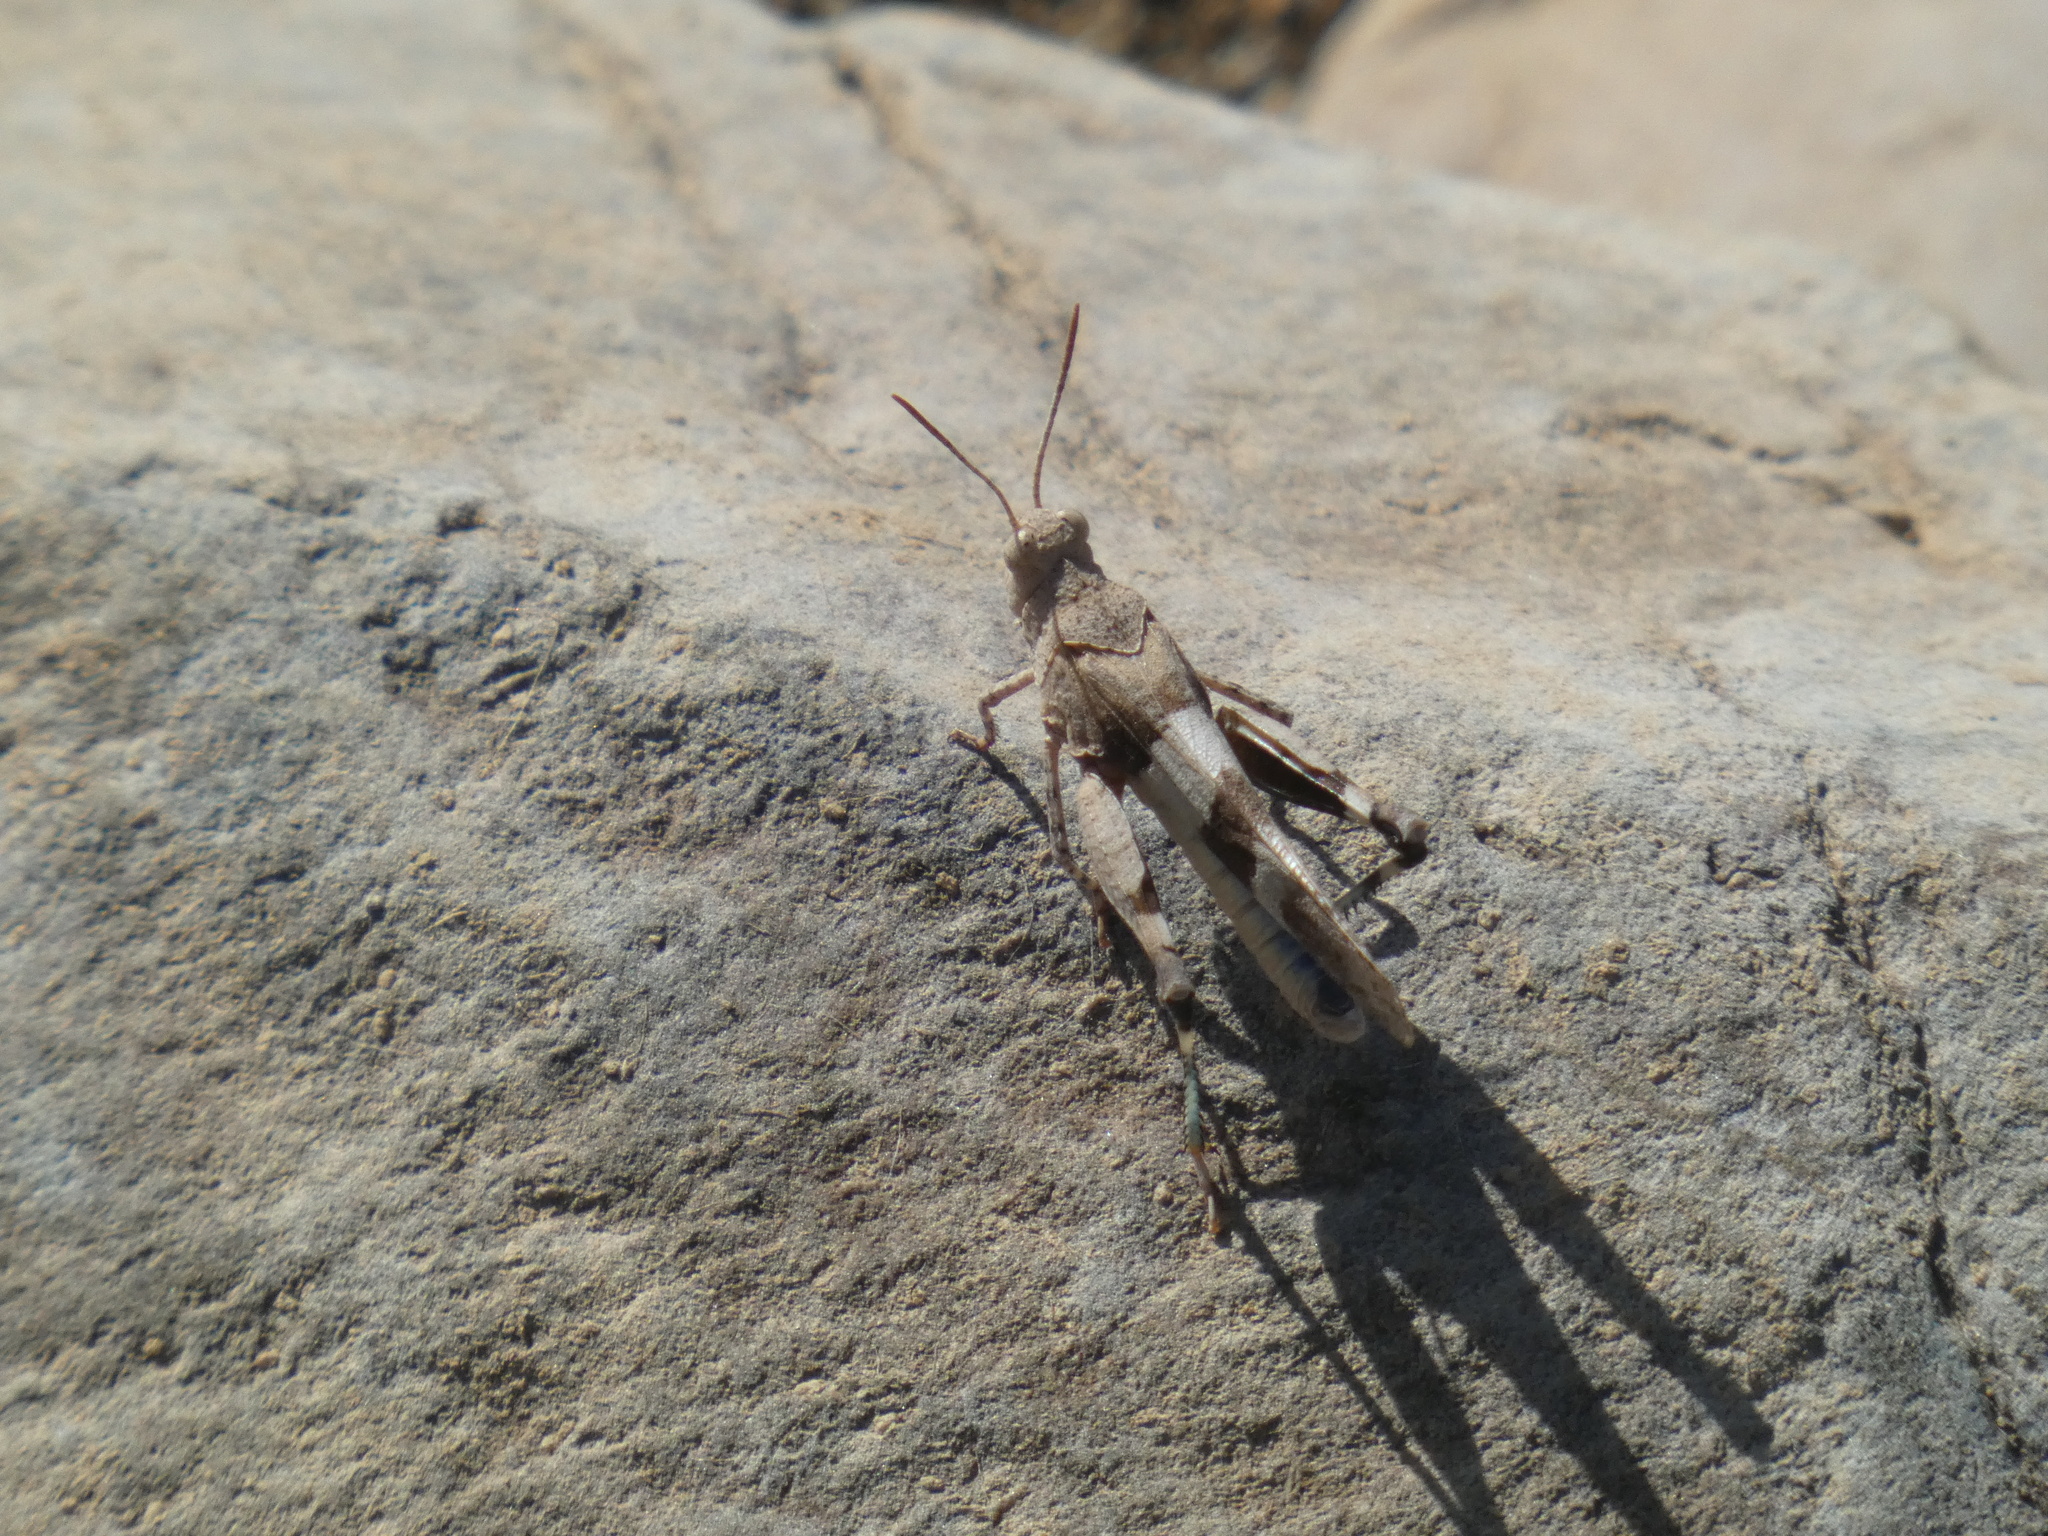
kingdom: Animalia
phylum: Arthropoda
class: Insecta
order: Orthoptera
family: Acrididae
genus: Oedipoda
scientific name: Oedipoda caerulescens
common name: Blue-winged grasshopper
